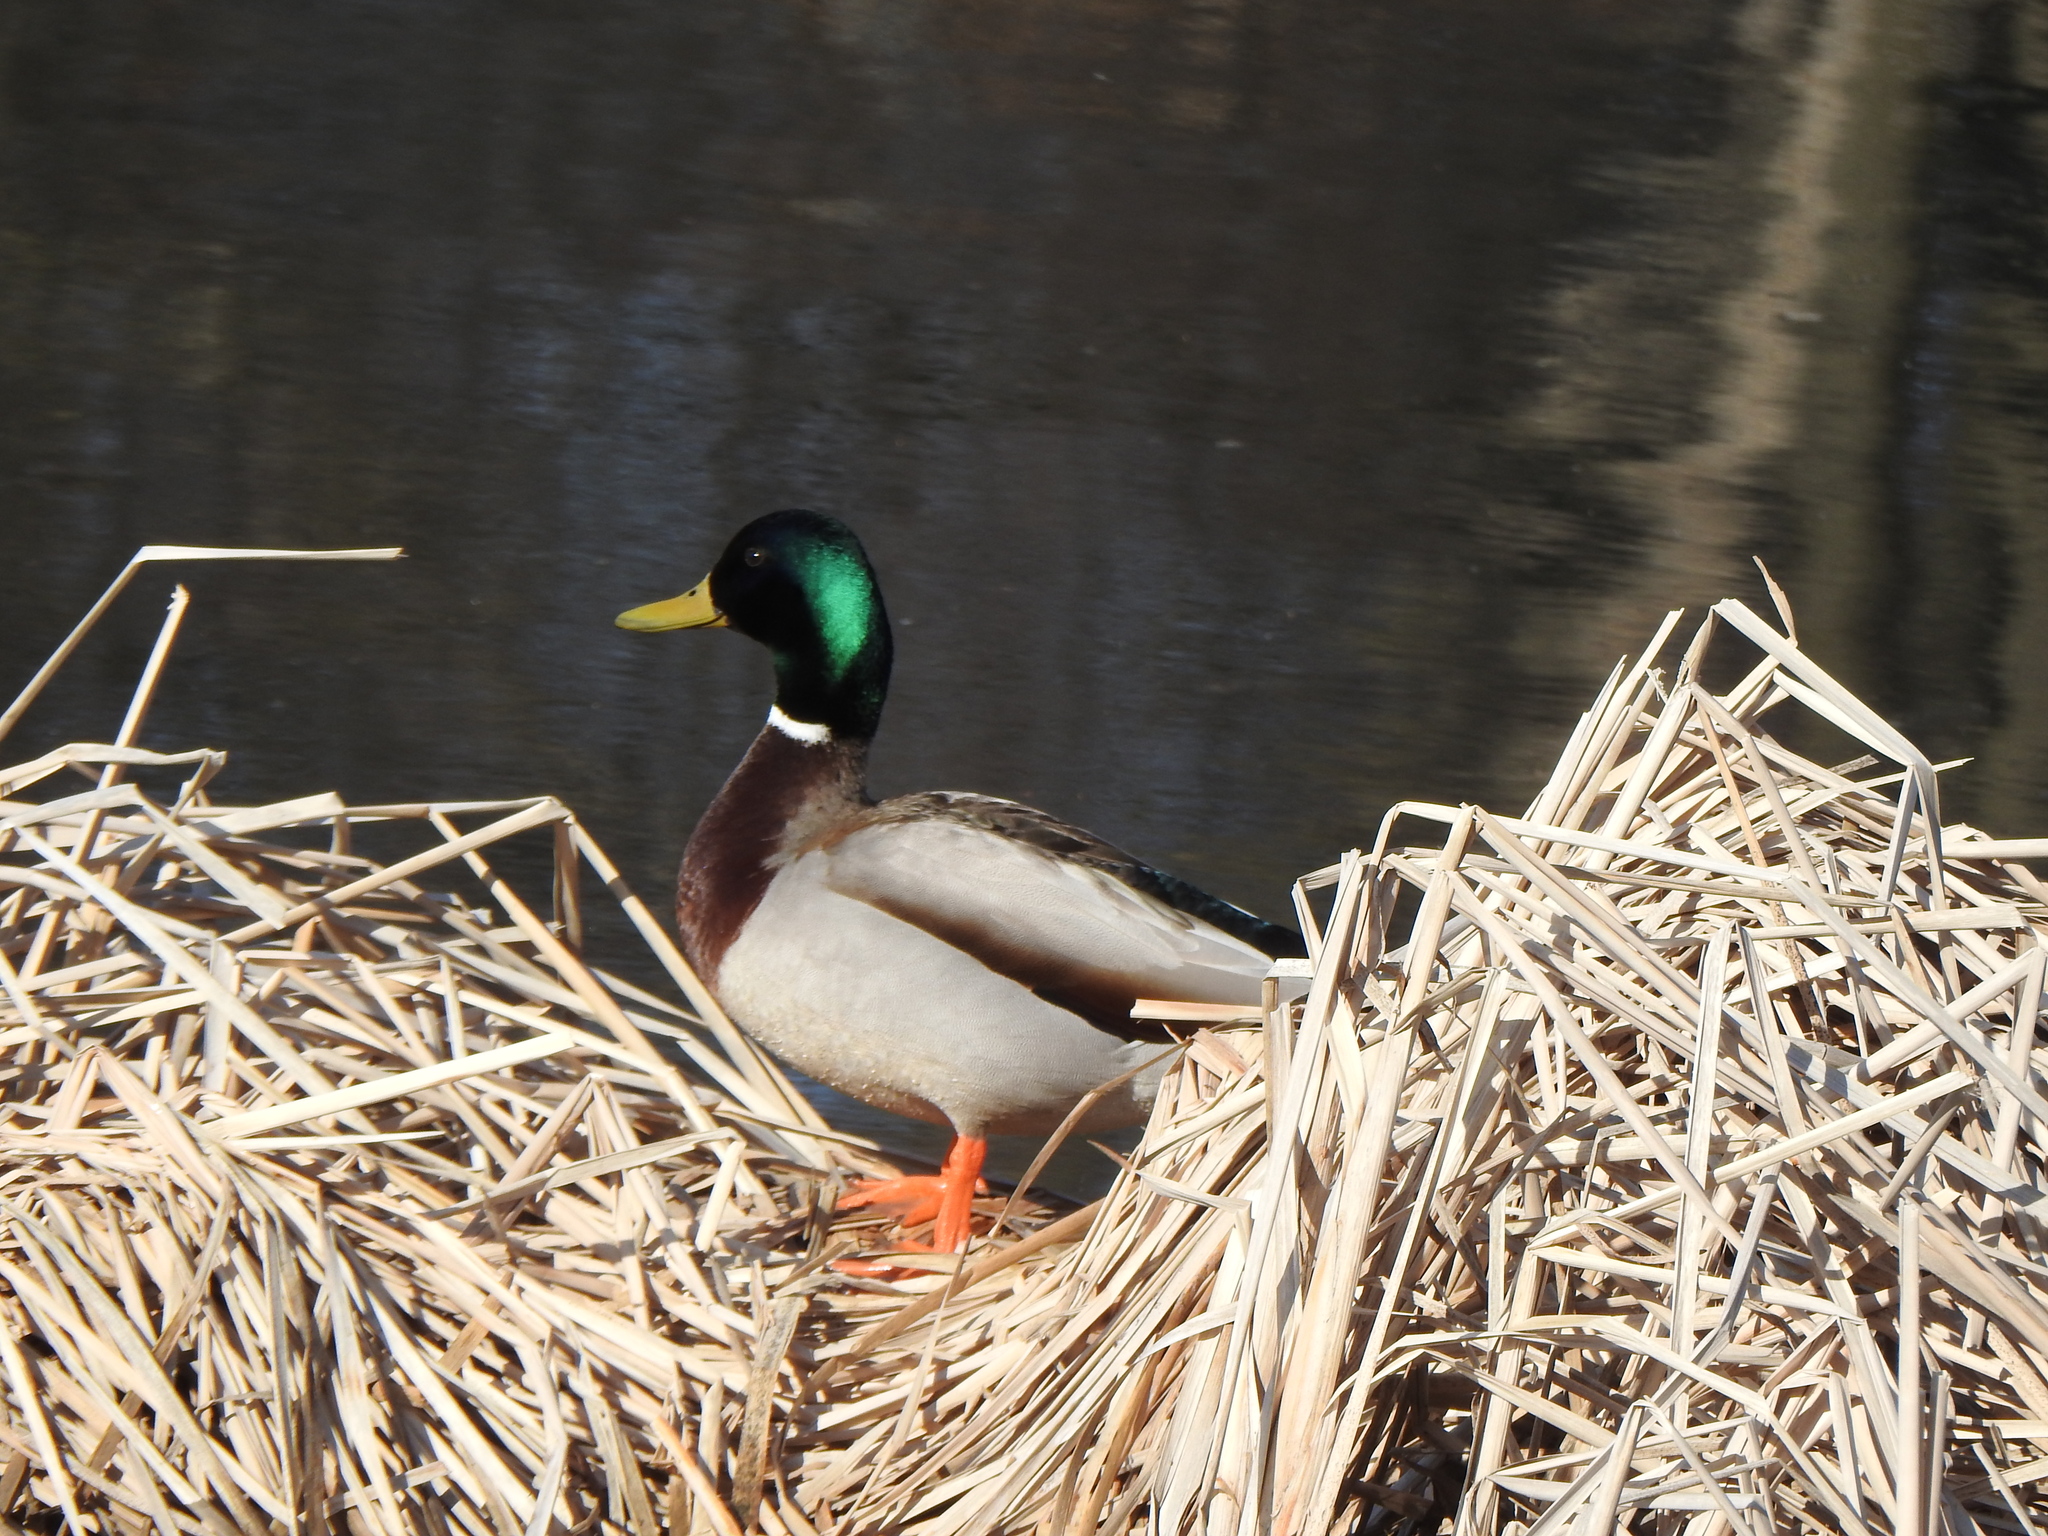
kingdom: Animalia
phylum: Chordata
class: Aves
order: Anseriformes
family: Anatidae
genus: Anas
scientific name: Anas platyrhynchos
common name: Mallard
